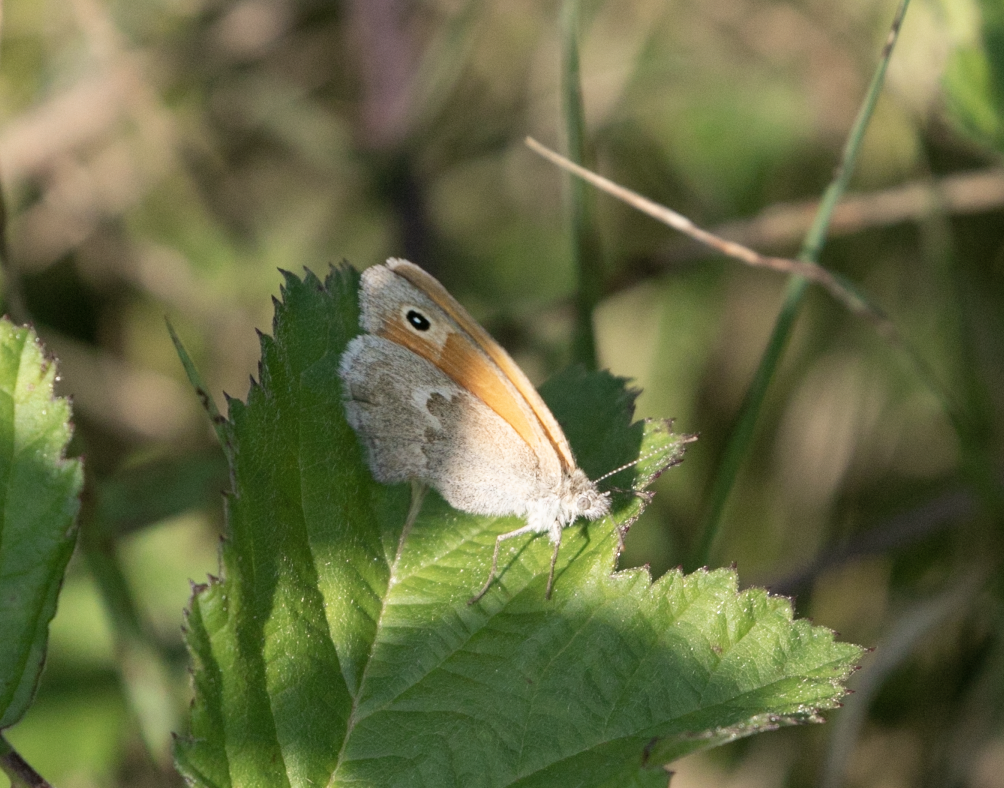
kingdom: Animalia
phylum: Arthropoda
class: Insecta
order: Lepidoptera
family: Nymphalidae
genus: Coenonympha
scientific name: Coenonympha pamphilus
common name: Small heath
